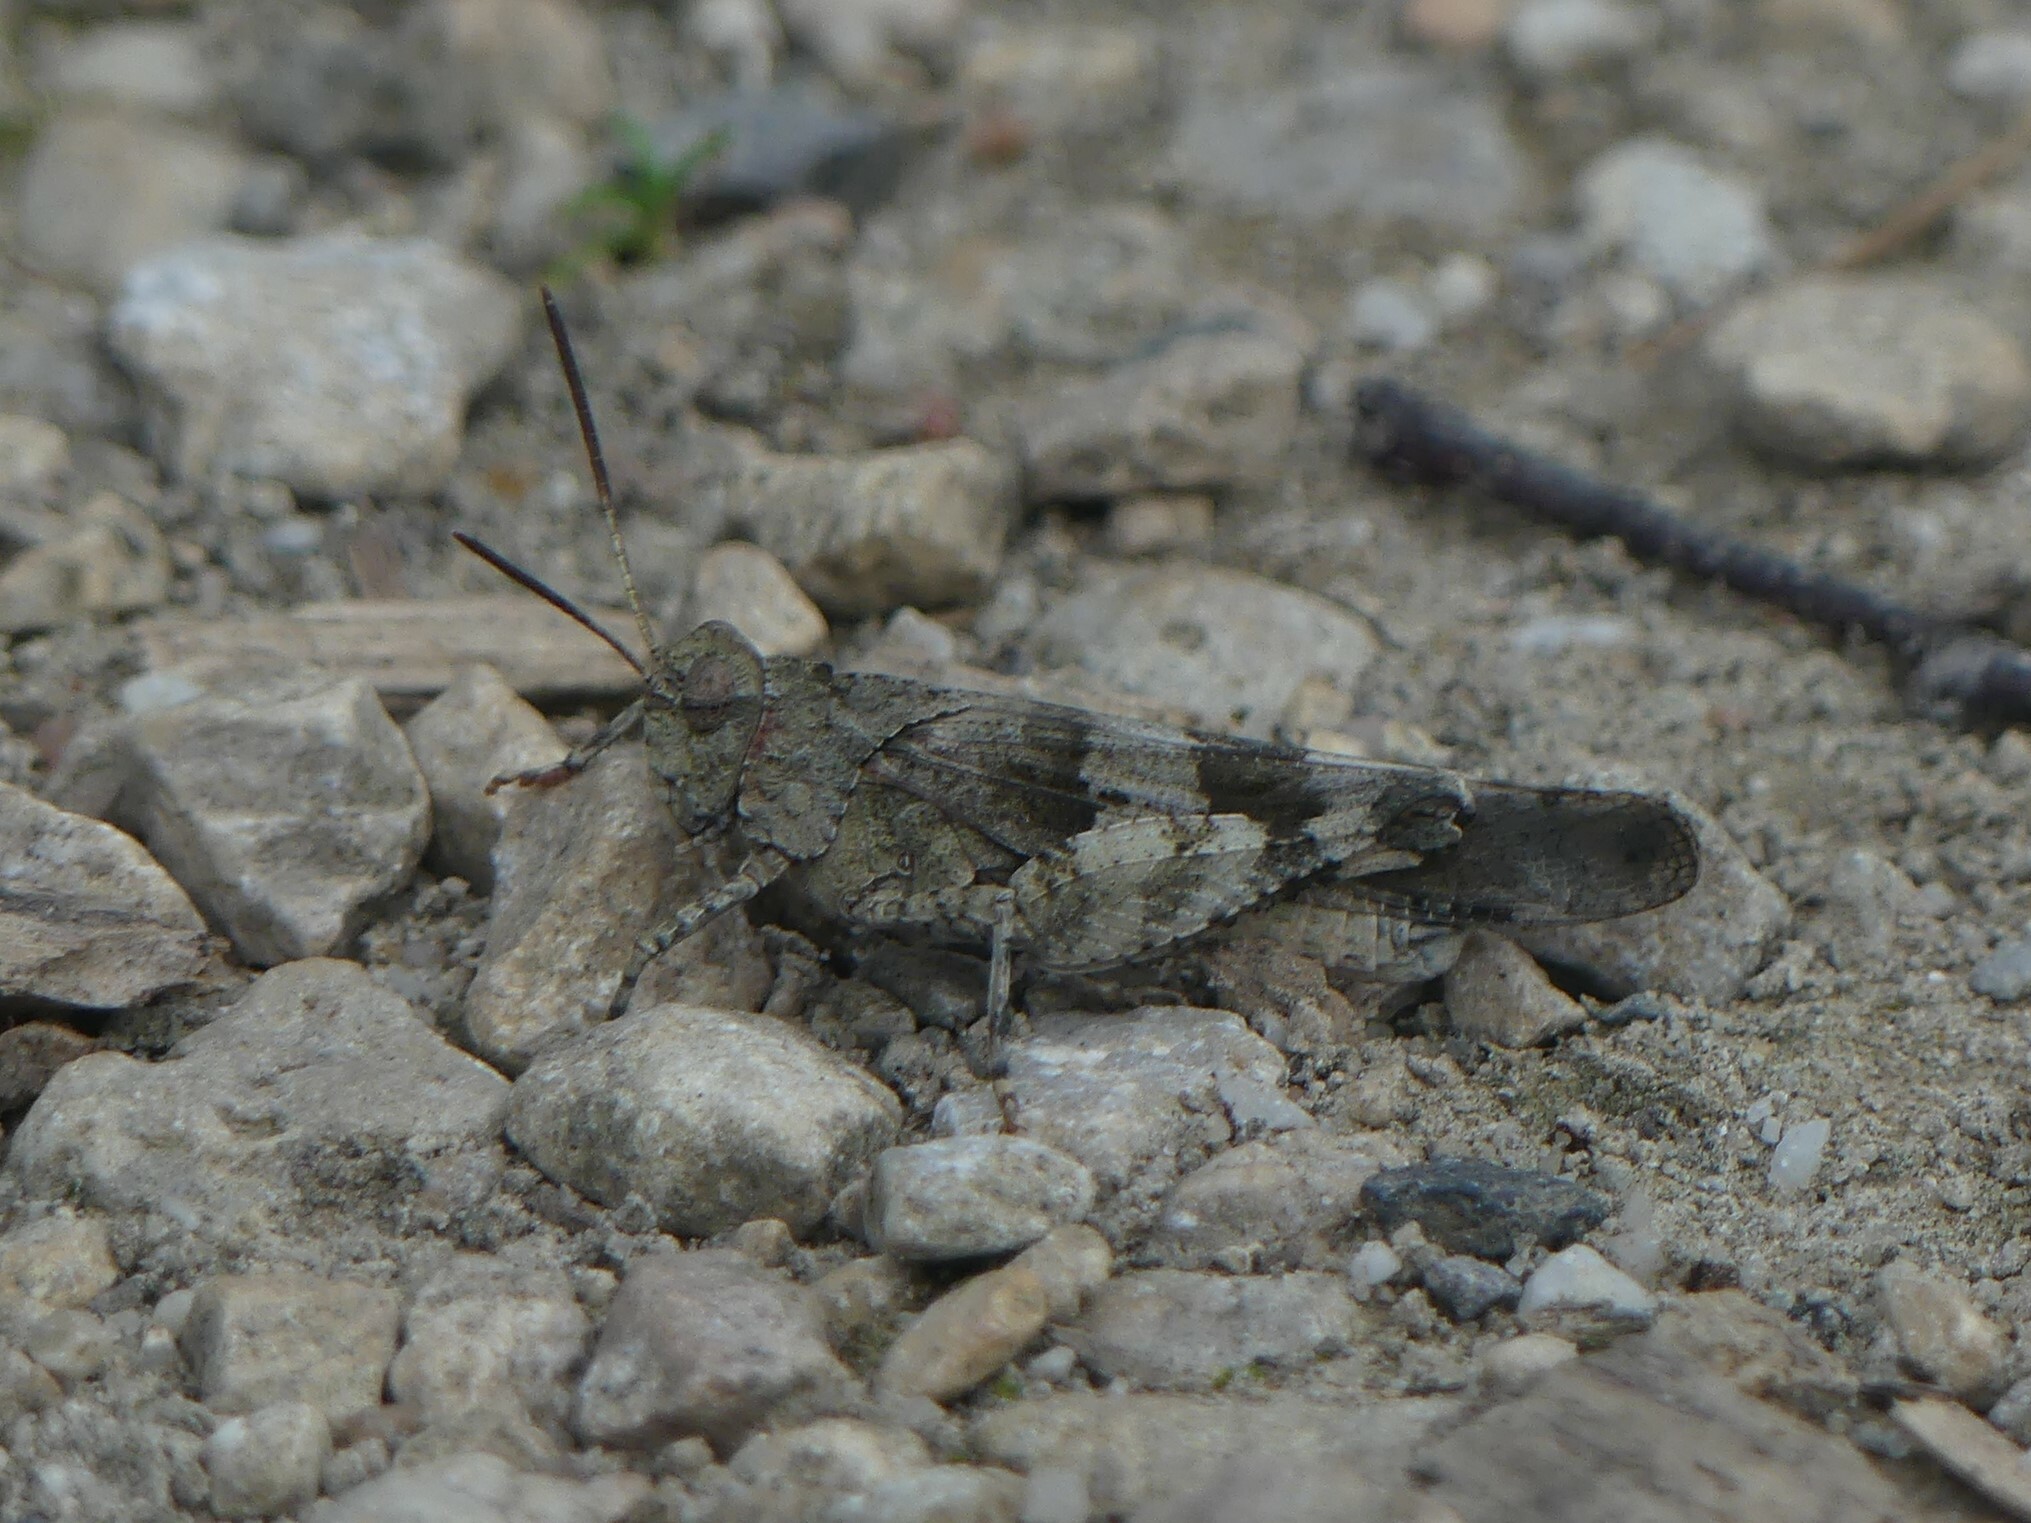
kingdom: Animalia
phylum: Arthropoda
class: Insecta
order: Orthoptera
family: Acrididae
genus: Oedipoda
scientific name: Oedipoda caerulescens
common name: Blue-winged grasshopper
